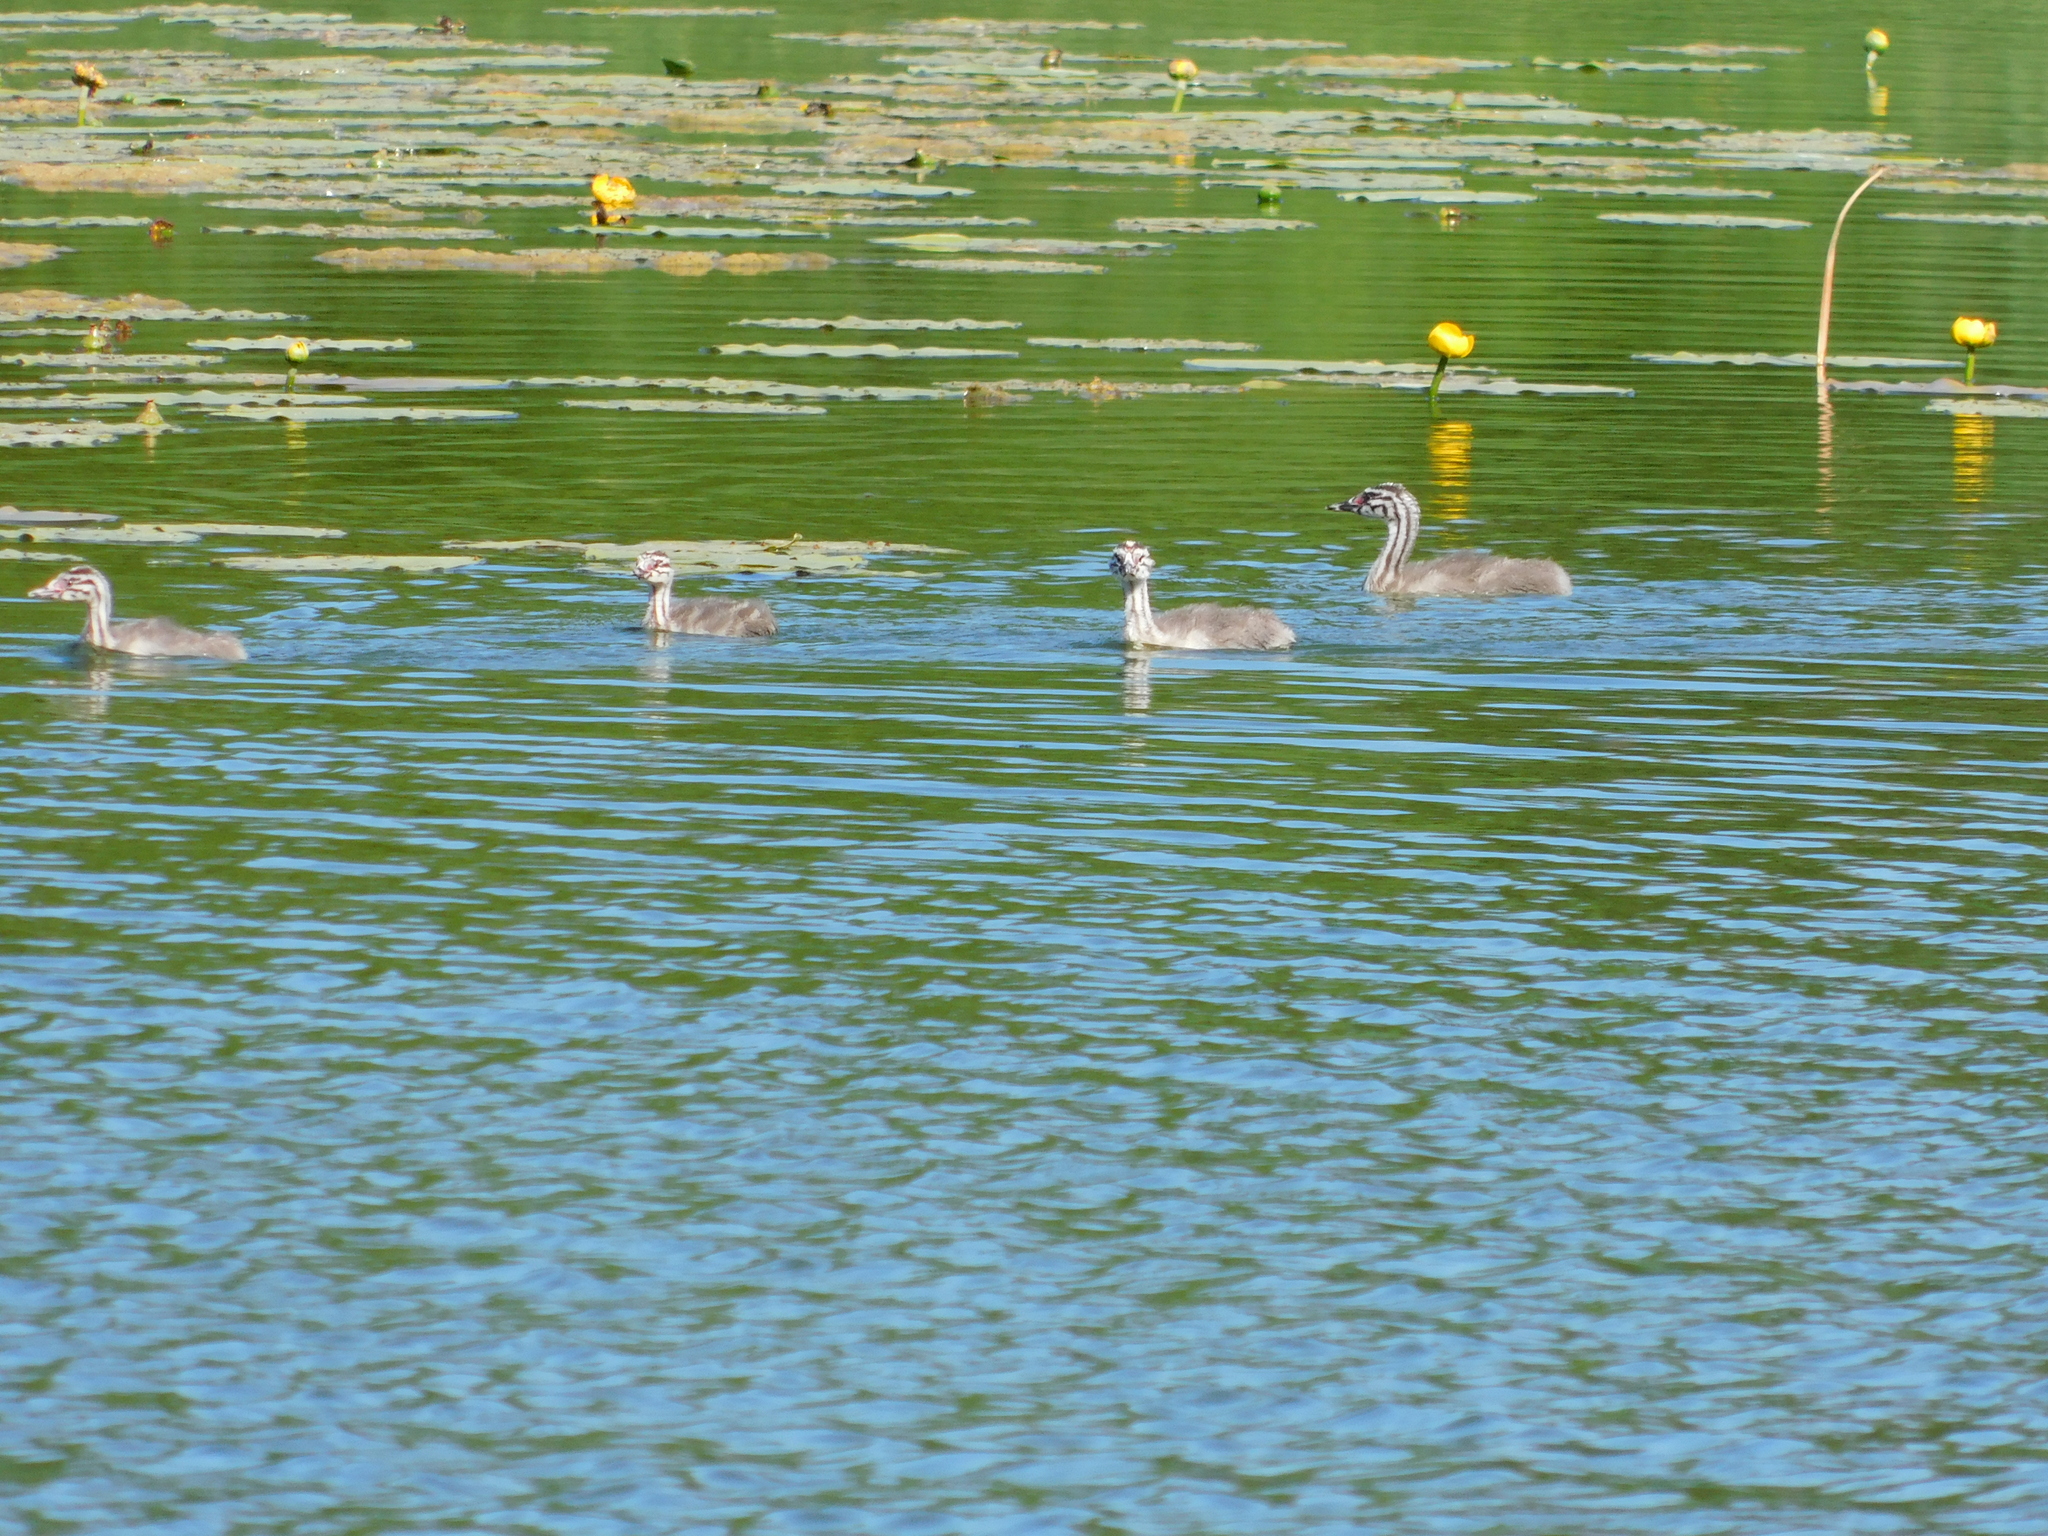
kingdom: Animalia
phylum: Chordata
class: Aves
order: Podicipediformes
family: Podicipedidae
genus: Podiceps
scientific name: Podiceps cristatus
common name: Great crested grebe
